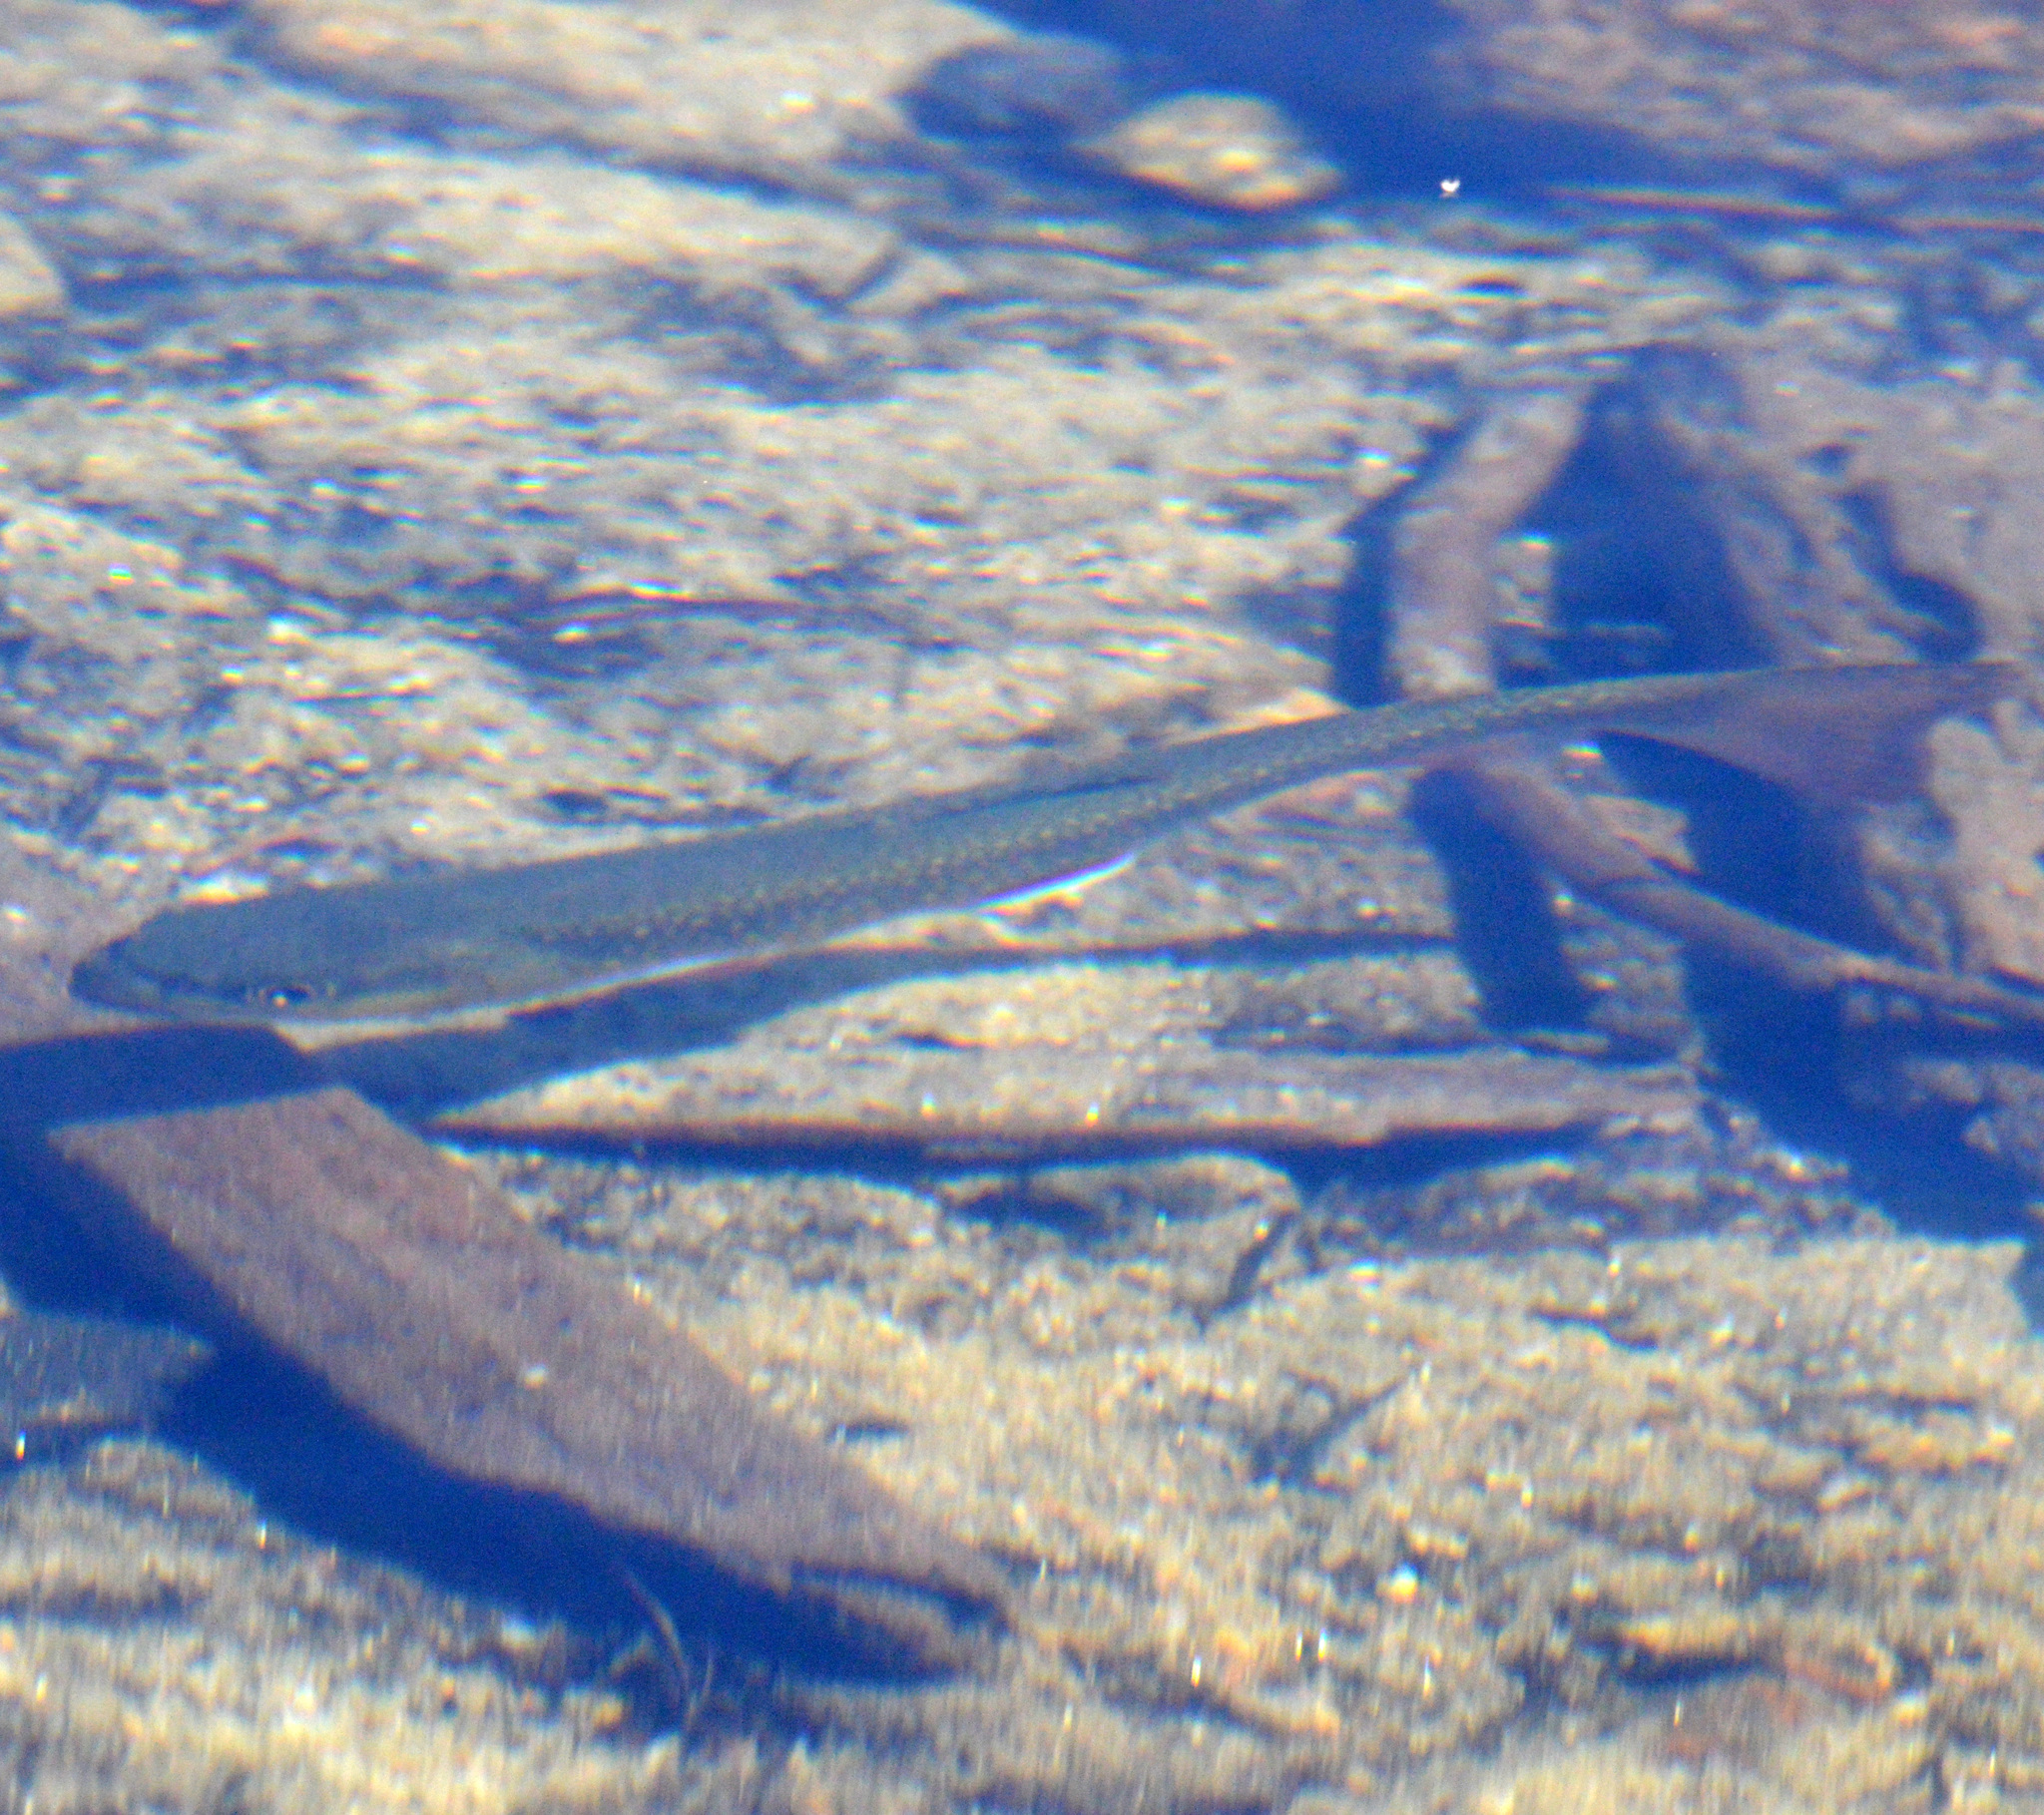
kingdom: Animalia
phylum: Chordata
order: Salmoniformes
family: Salmonidae
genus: Salvelinus
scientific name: Salvelinus fontinalis
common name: Brook trout
